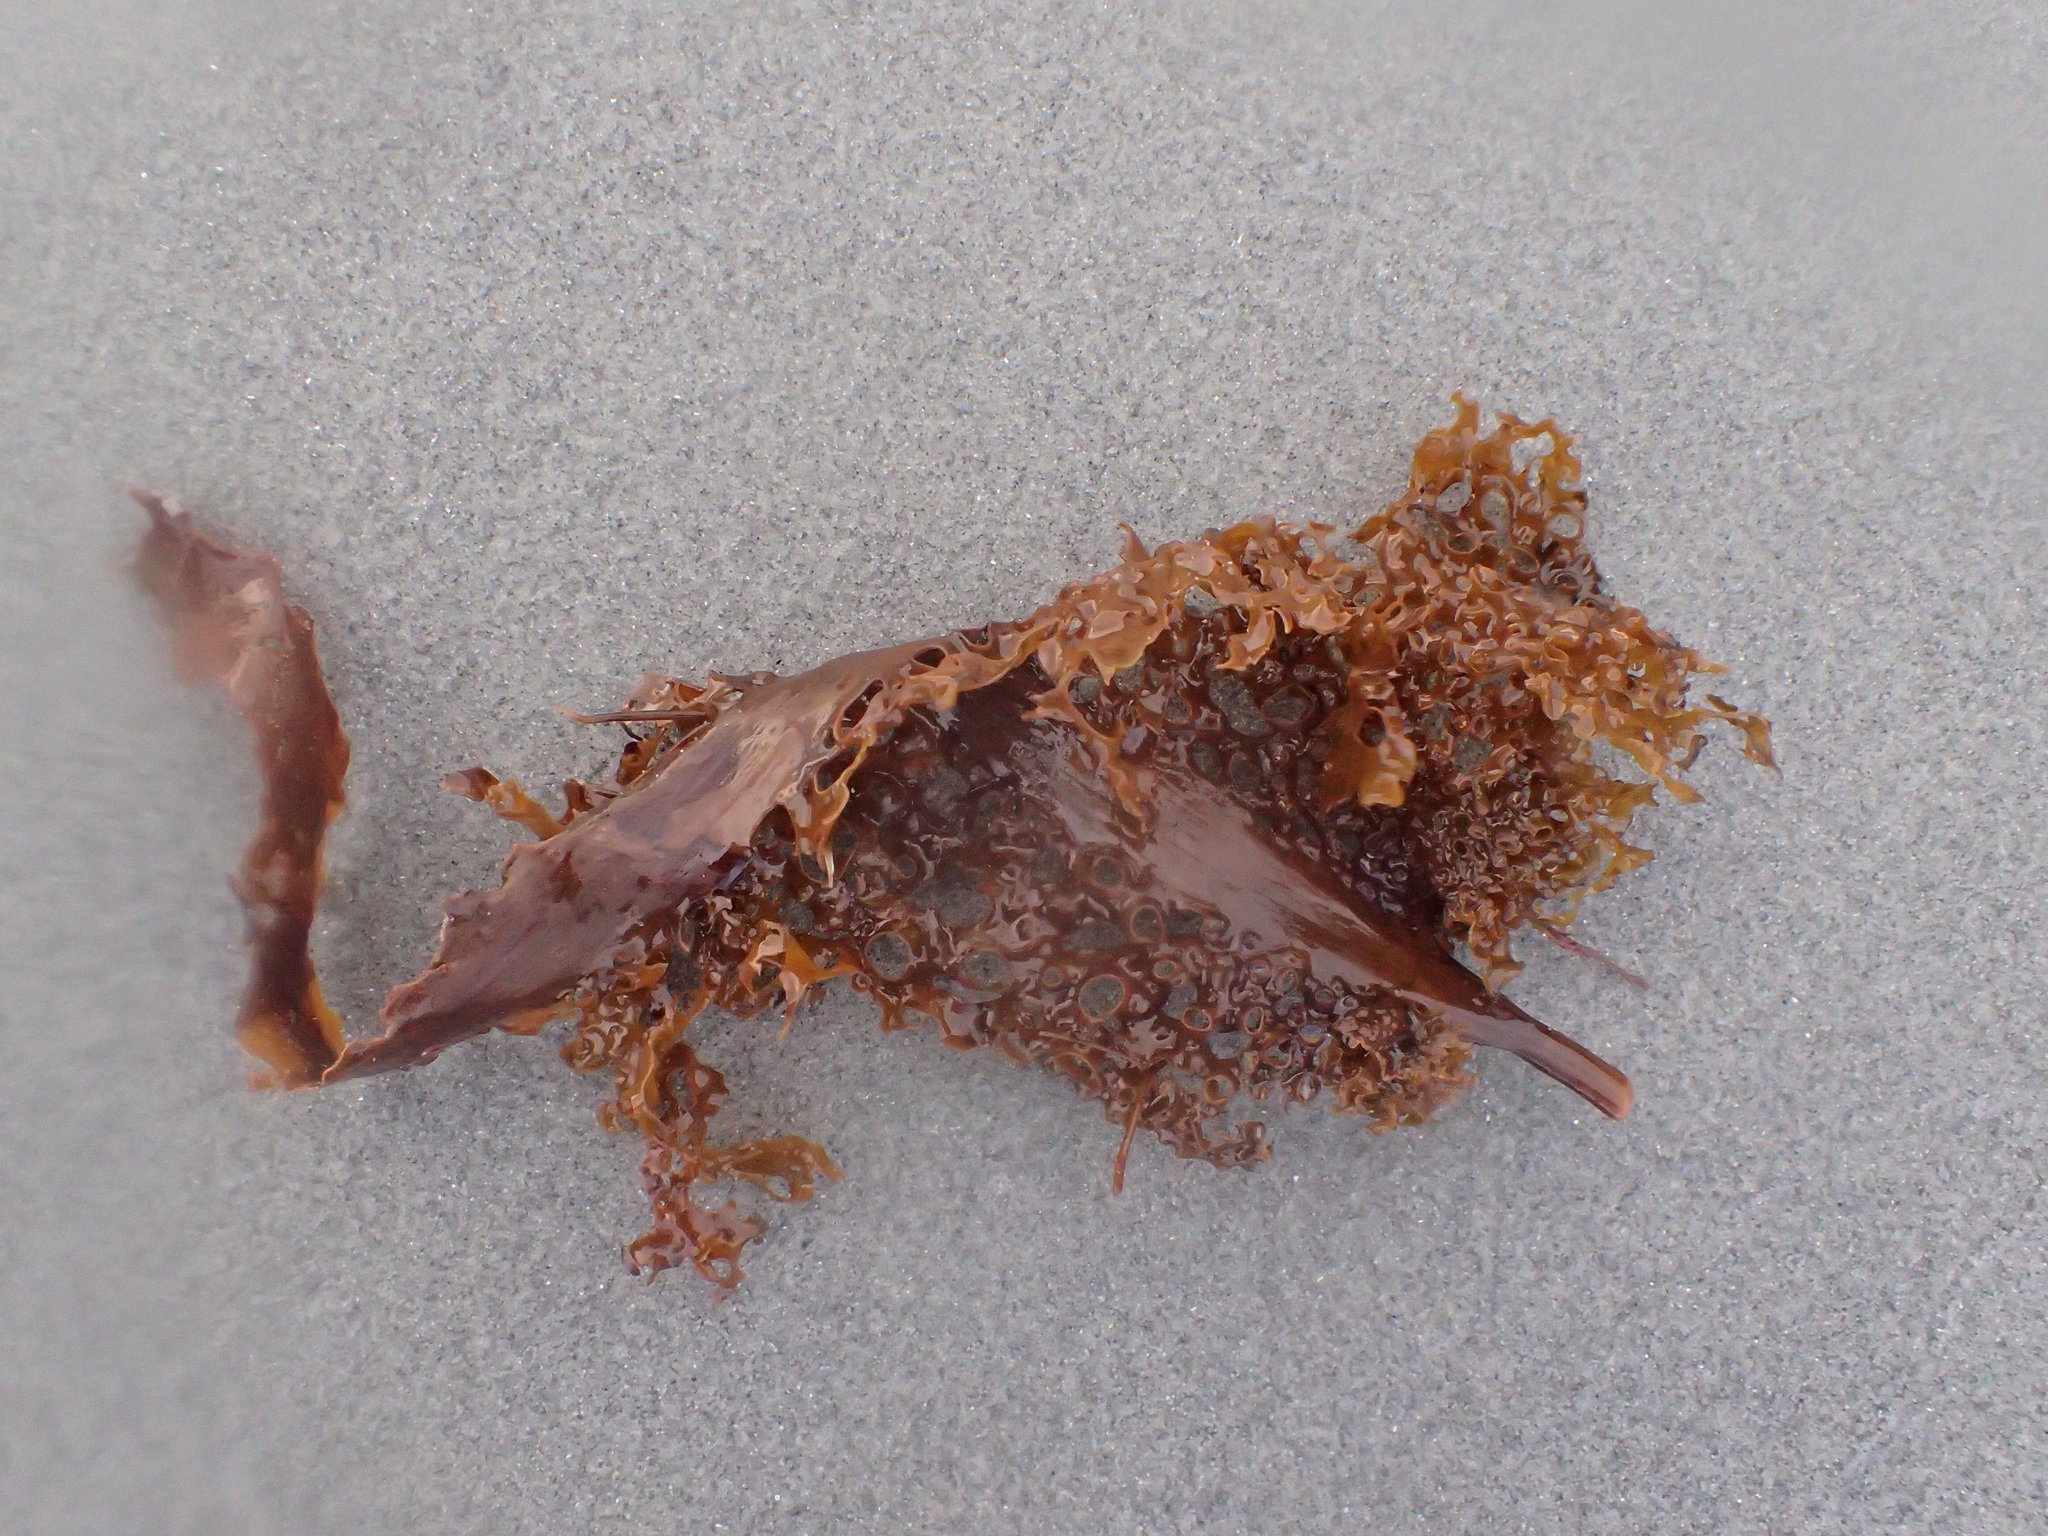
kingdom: Chromista
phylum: Ochrophyta
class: Phaeophyceae
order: Laminariales
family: Costariaceae
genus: Agarum
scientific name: Agarum clathratum
